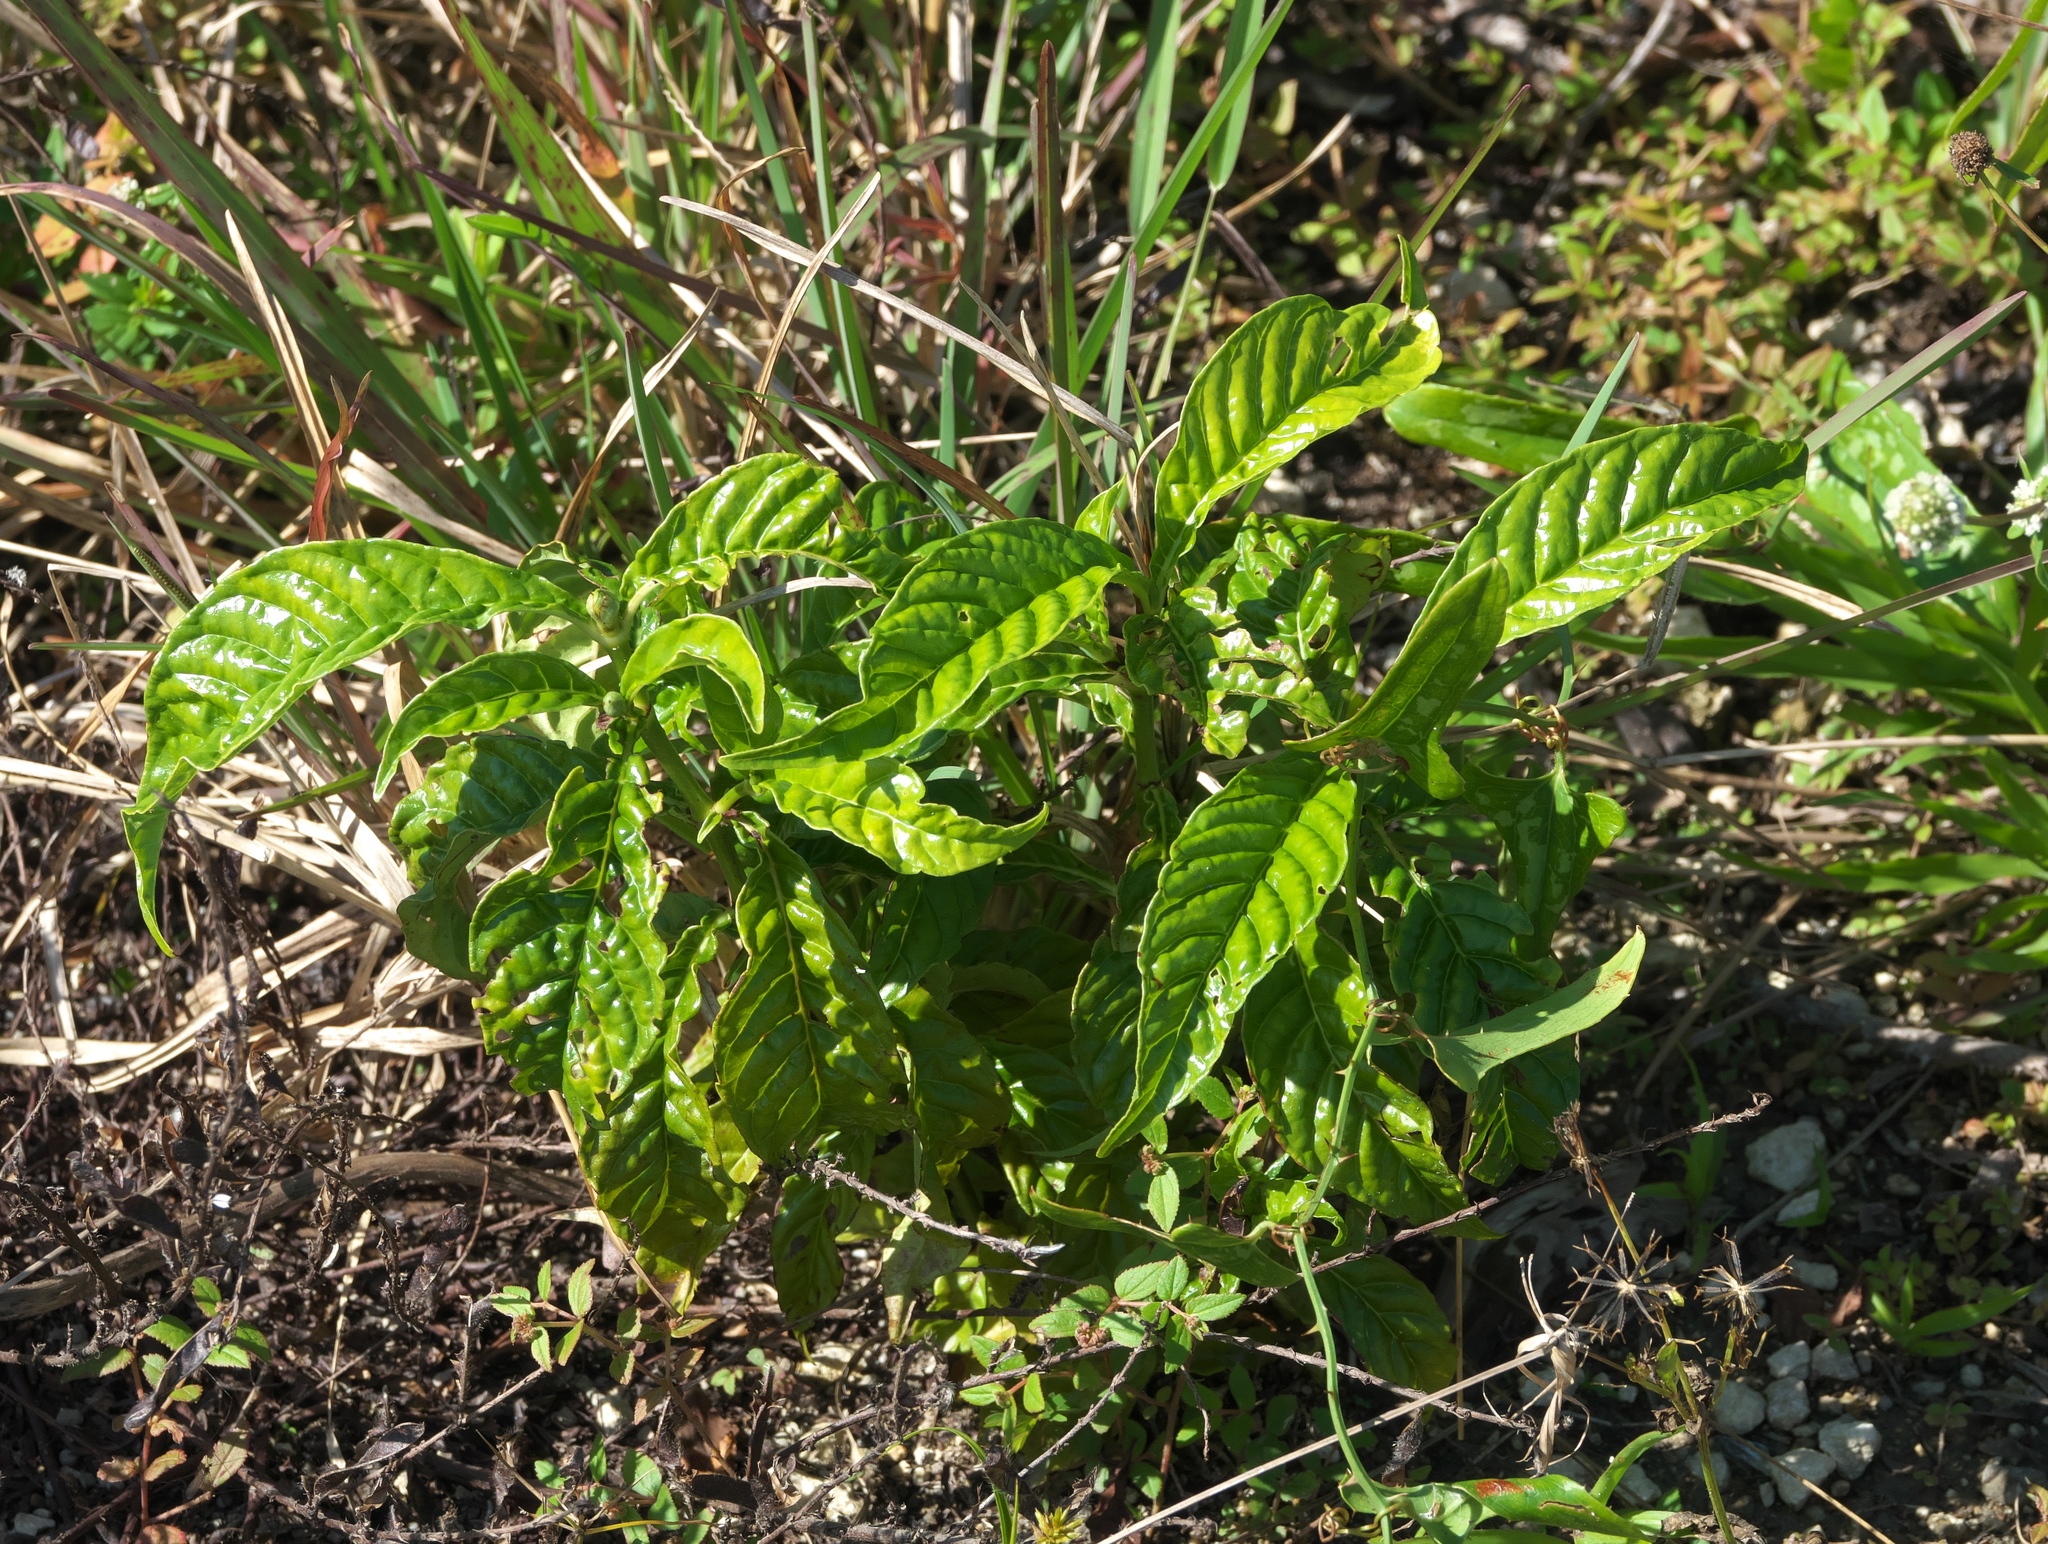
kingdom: Plantae
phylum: Tracheophyta
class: Magnoliopsida
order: Gentianales
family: Rubiaceae
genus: Psychotria
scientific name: Psychotria nervosa
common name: Bastard cankerberry
